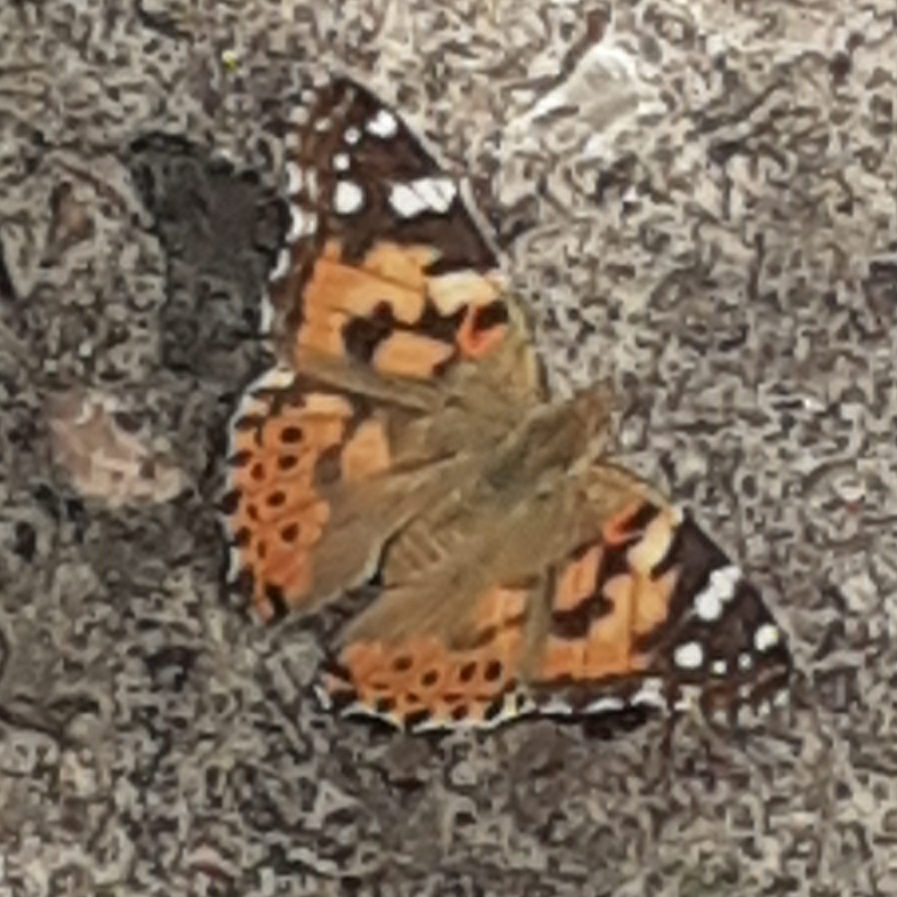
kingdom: Animalia
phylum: Arthropoda
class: Insecta
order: Lepidoptera
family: Nymphalidae
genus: Vanessa
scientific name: Vanessa cardui
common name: Painted lady
